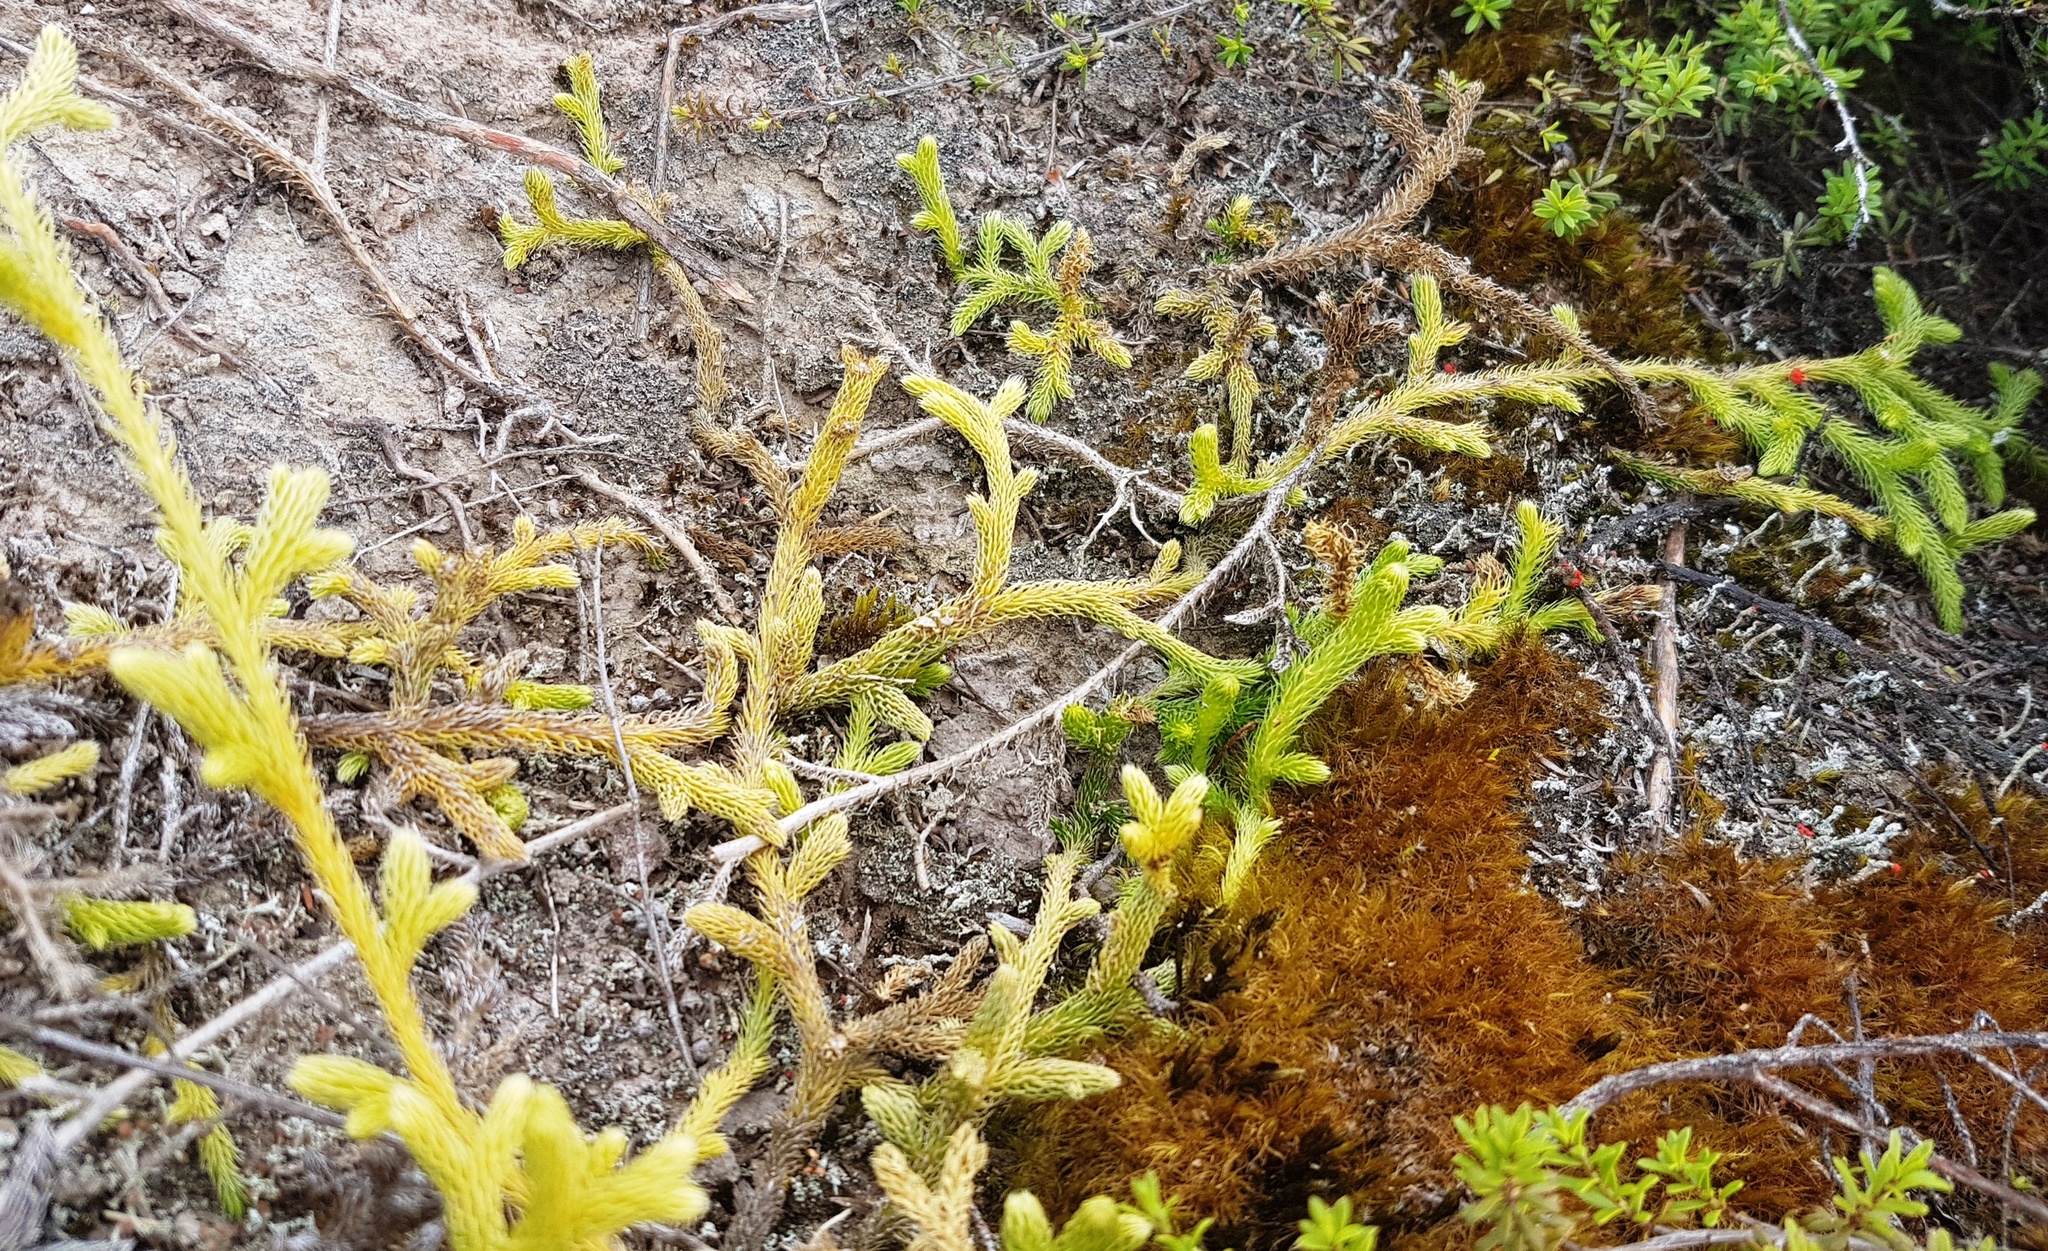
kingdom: Plantae
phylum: Tracheophyta
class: Lycopodiopsida
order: Lycopodiales
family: Lycopodiaceae
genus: Palhinhaea
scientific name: Palhinhaea cernua
